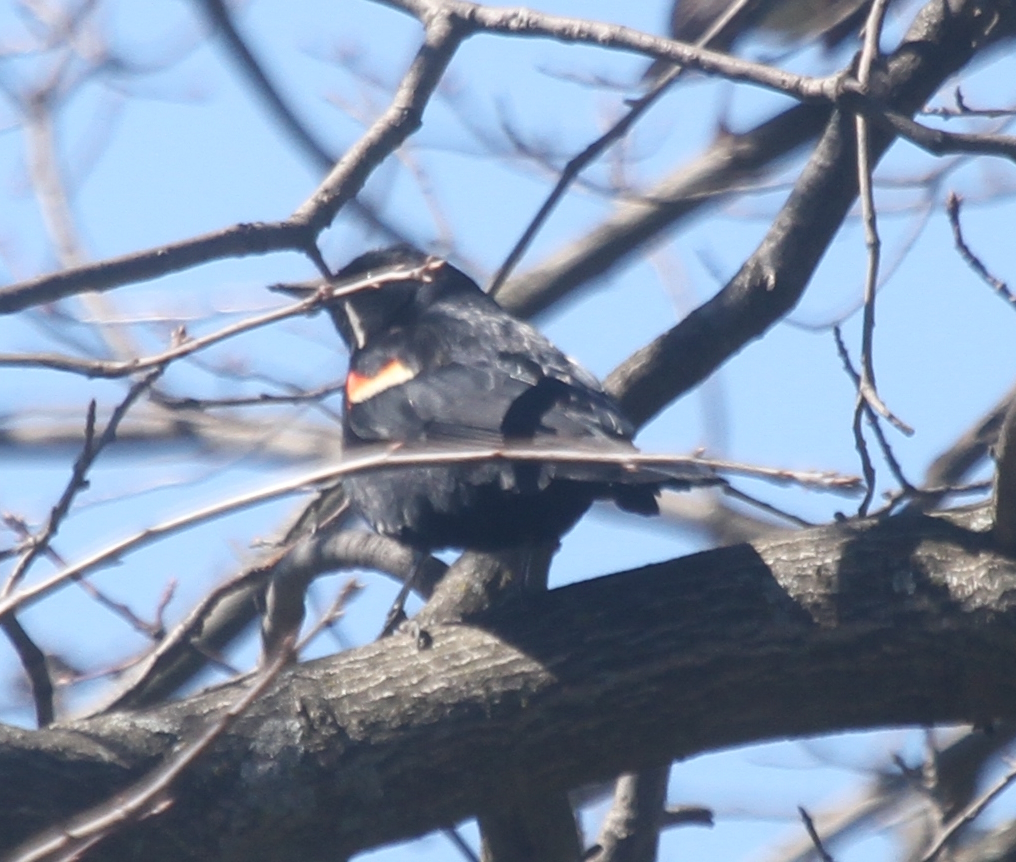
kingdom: Animalia
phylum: Chordata
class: Aves
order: Passeriformes
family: Icteridae
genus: Agelaius
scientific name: Agelaius phoeniceus
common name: Red-winged blackbird
